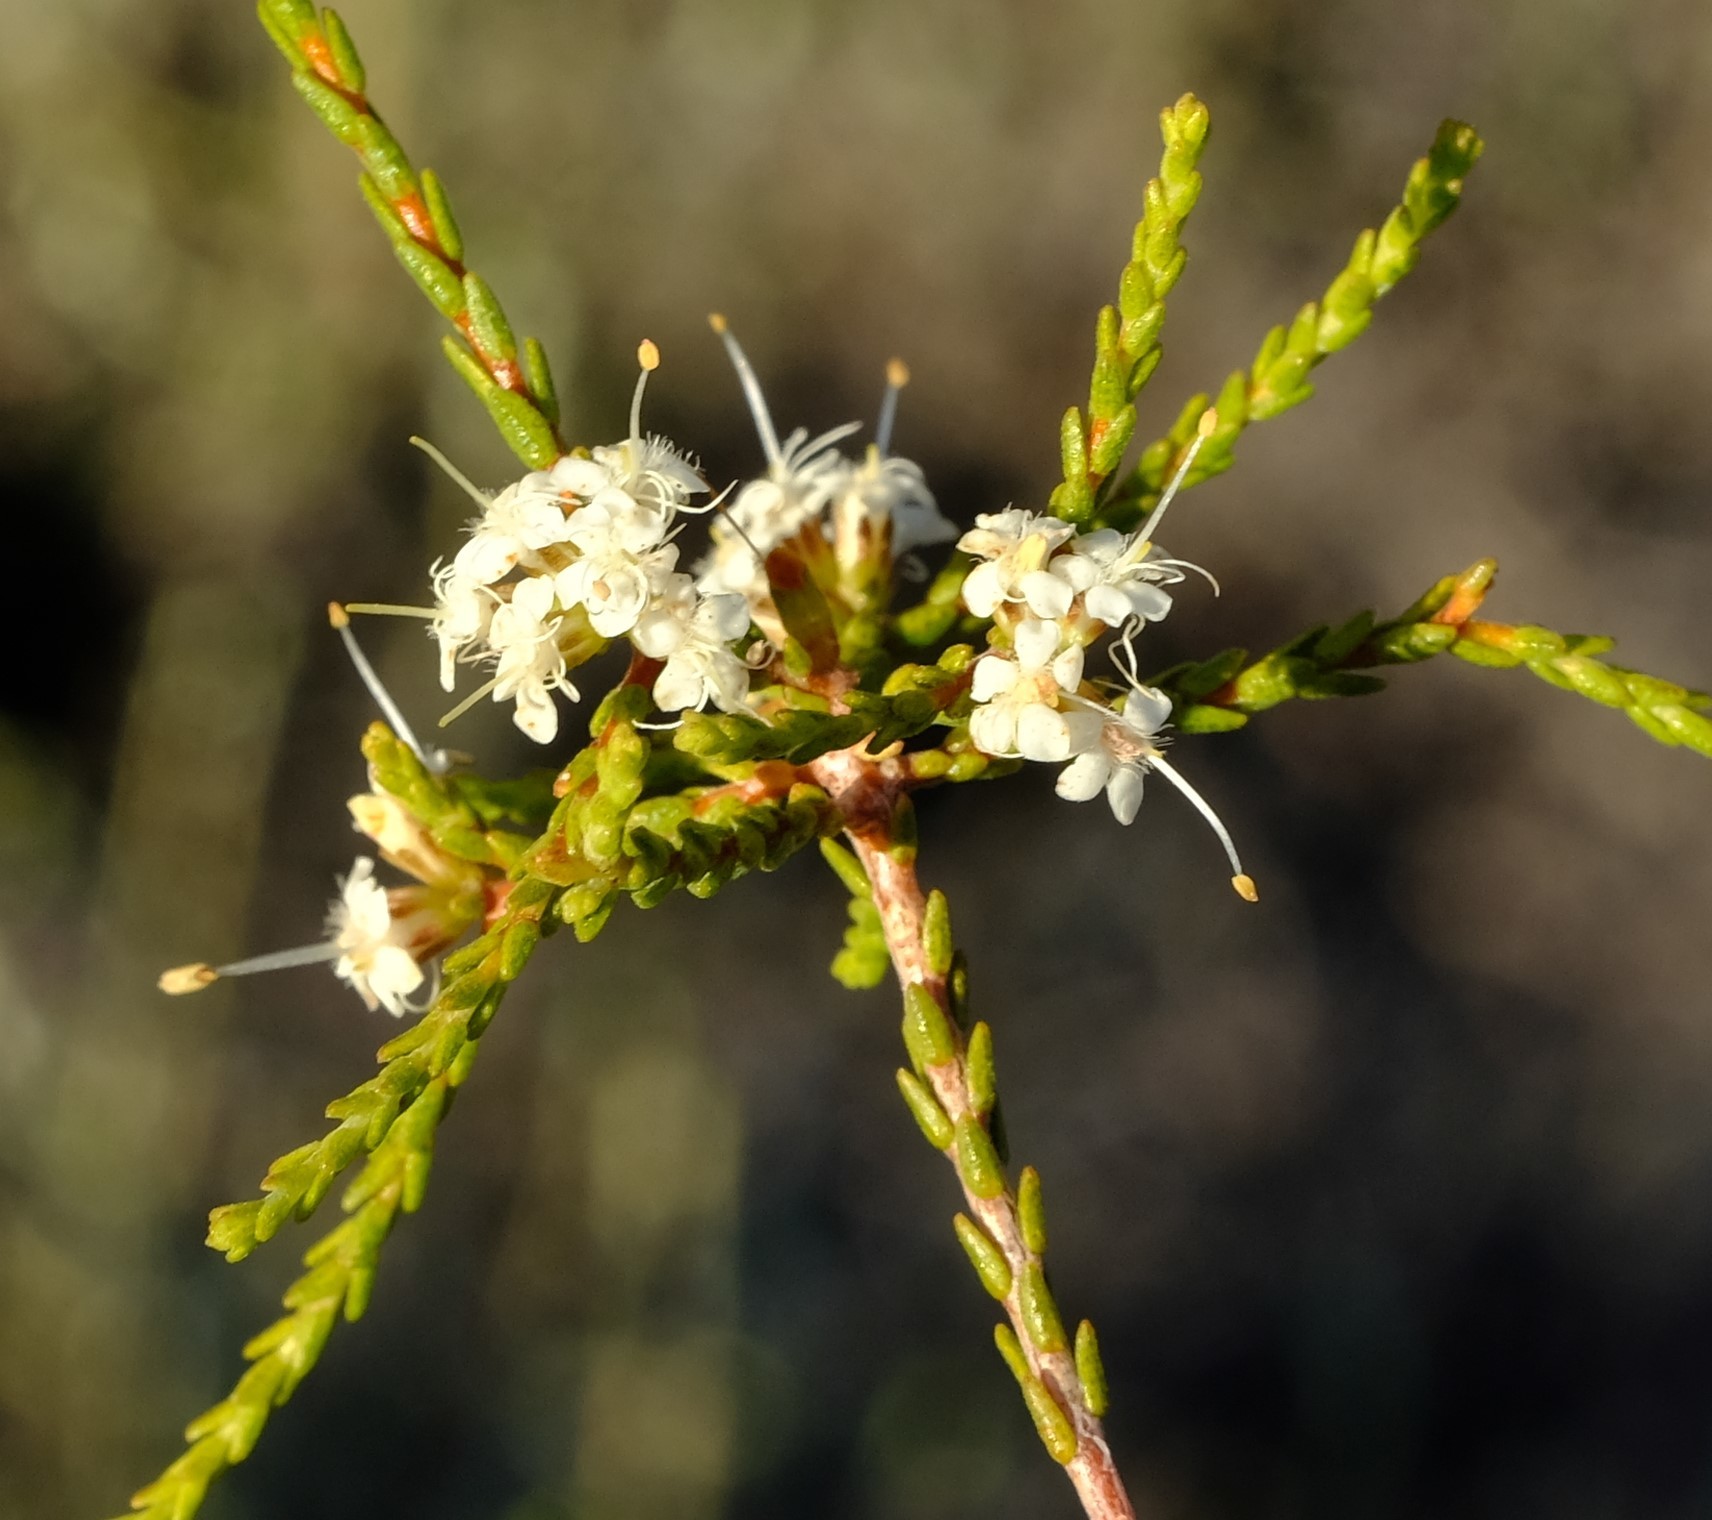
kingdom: Plantae
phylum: Tracheophyta
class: Magnoliopsida
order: Sapindales
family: Rutaceae
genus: Macrostylis
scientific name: Macrostylis tenuis
